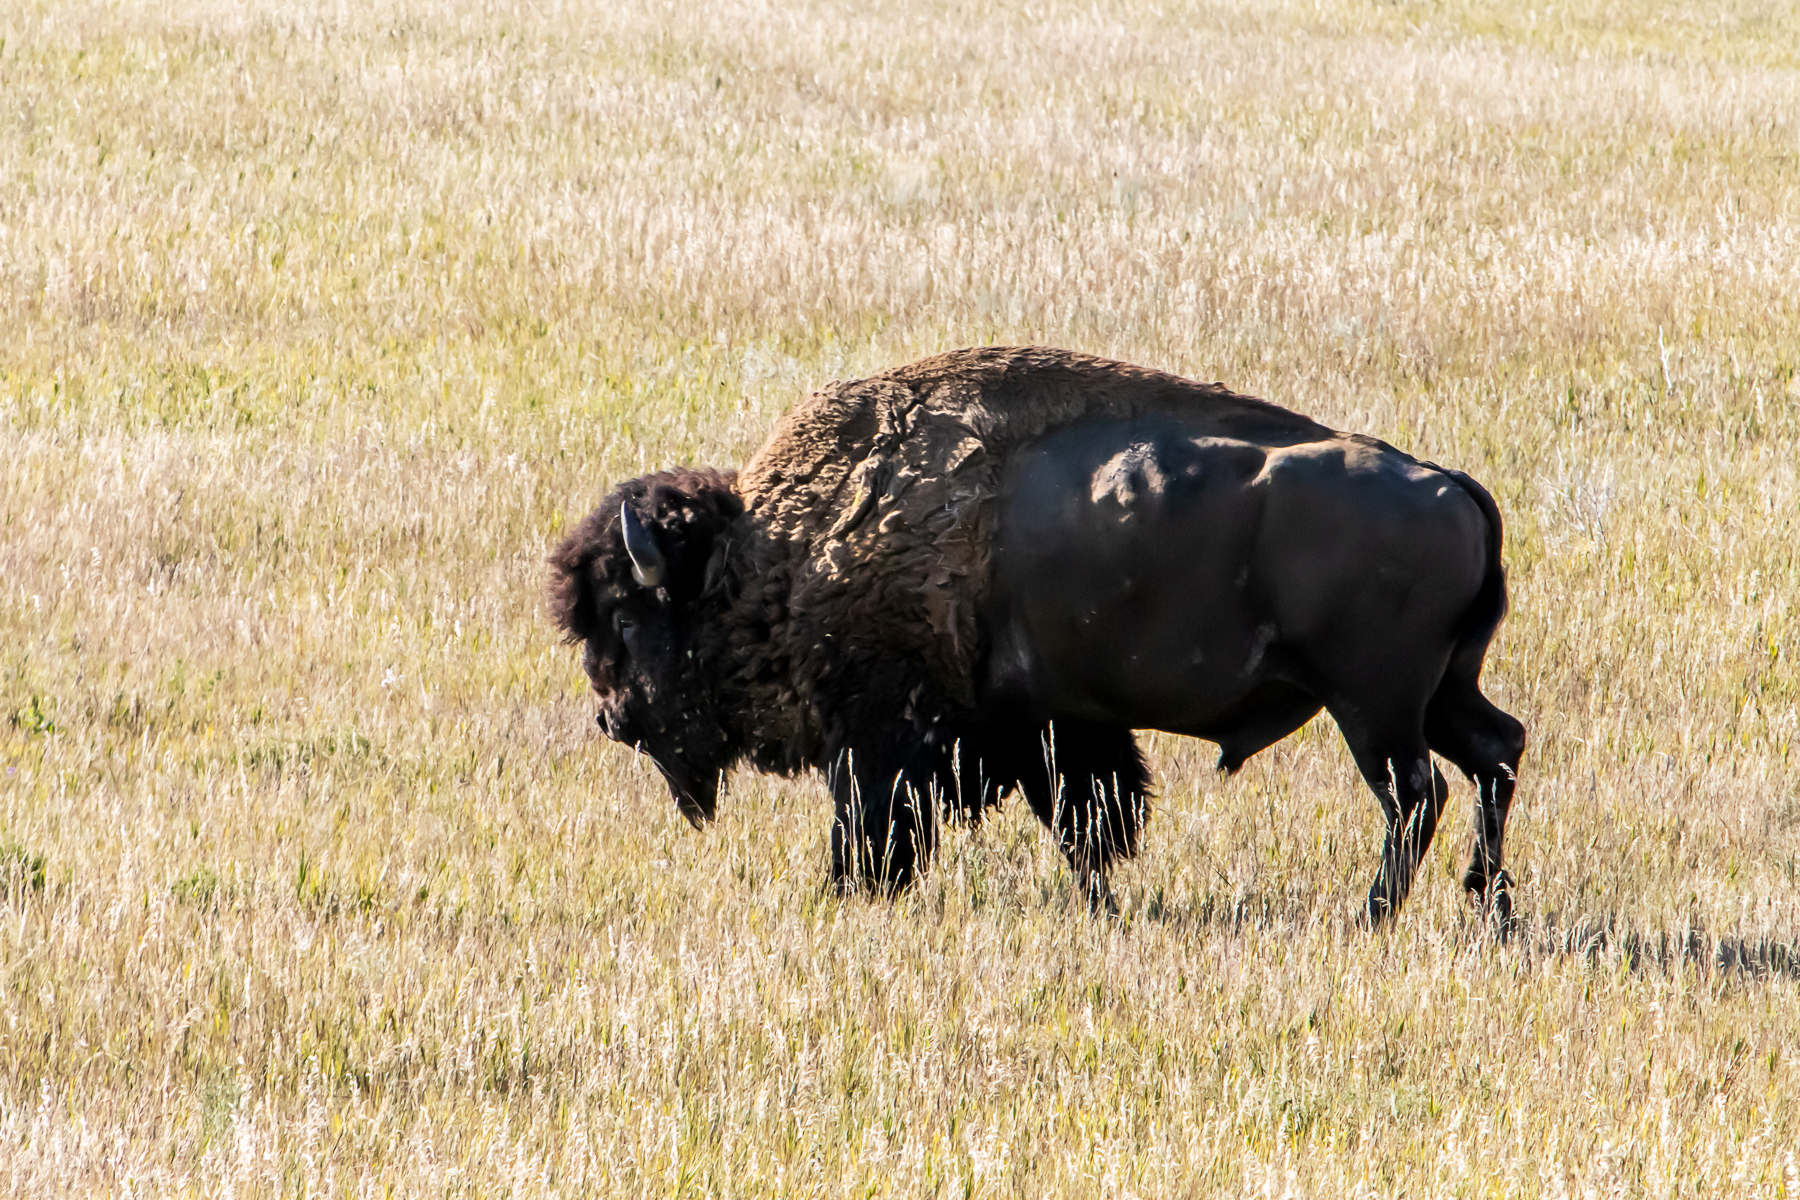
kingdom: Animalia
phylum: Chordata
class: Mammalia
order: Artiodactyla
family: Bovidae
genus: Bison
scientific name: Bison bison
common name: American bison
